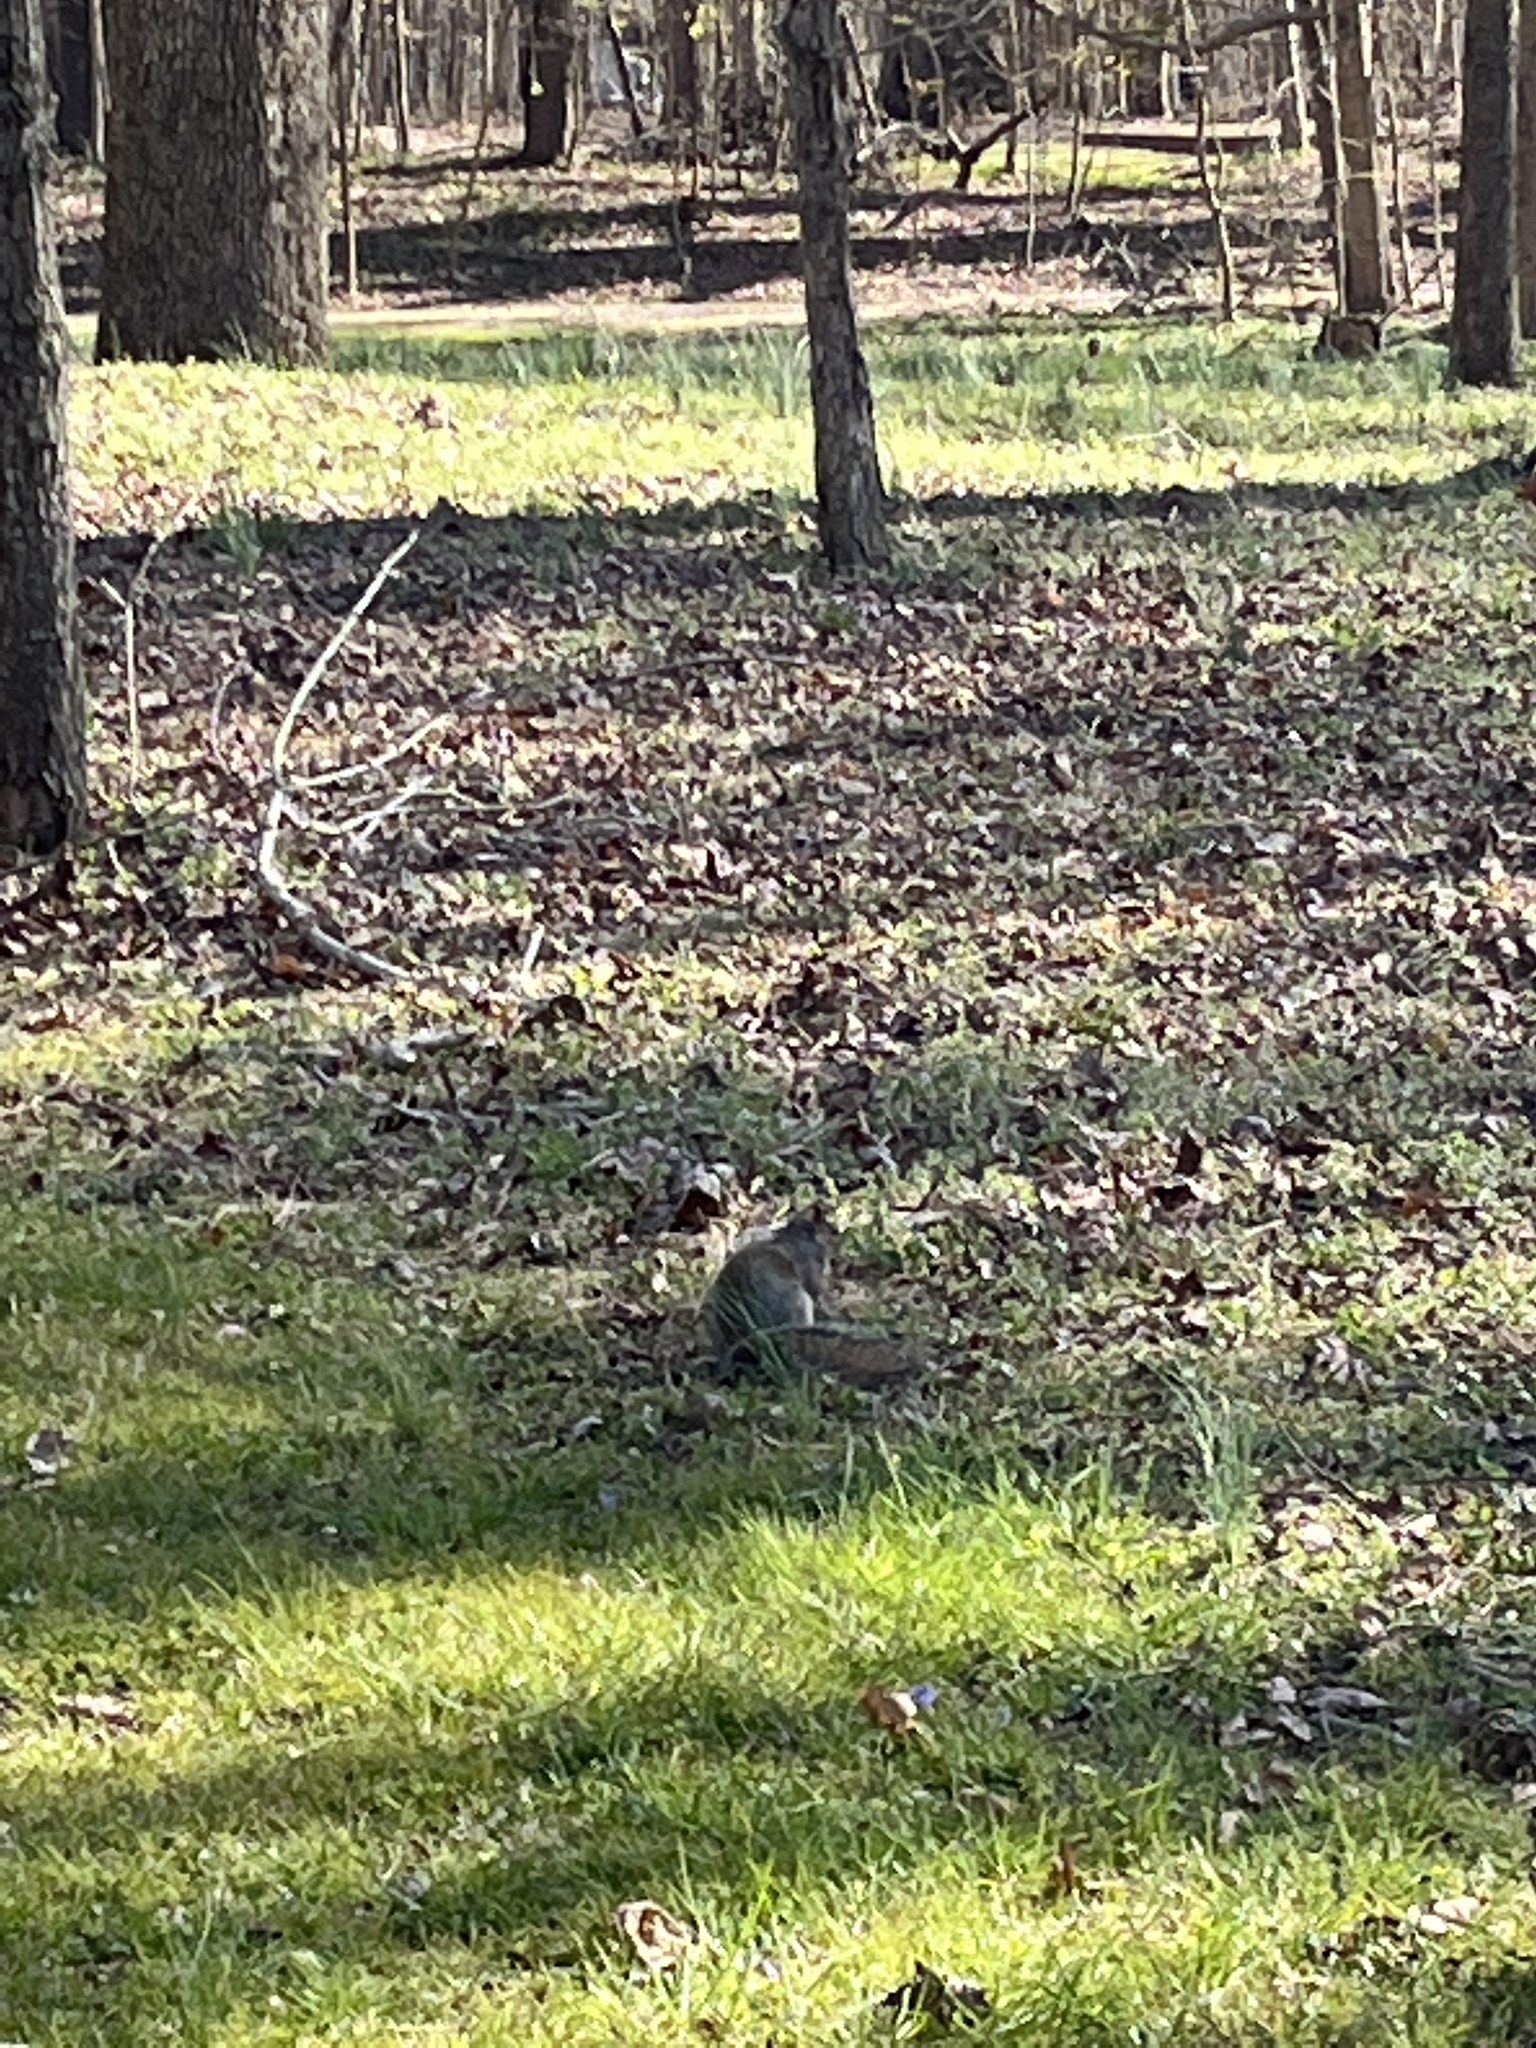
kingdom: Animalia
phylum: Chordata
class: Mammalia
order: Rodentia
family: Sciuridae
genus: Sciurus
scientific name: Sciurus carolinensis
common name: Eastern gray squirrel
